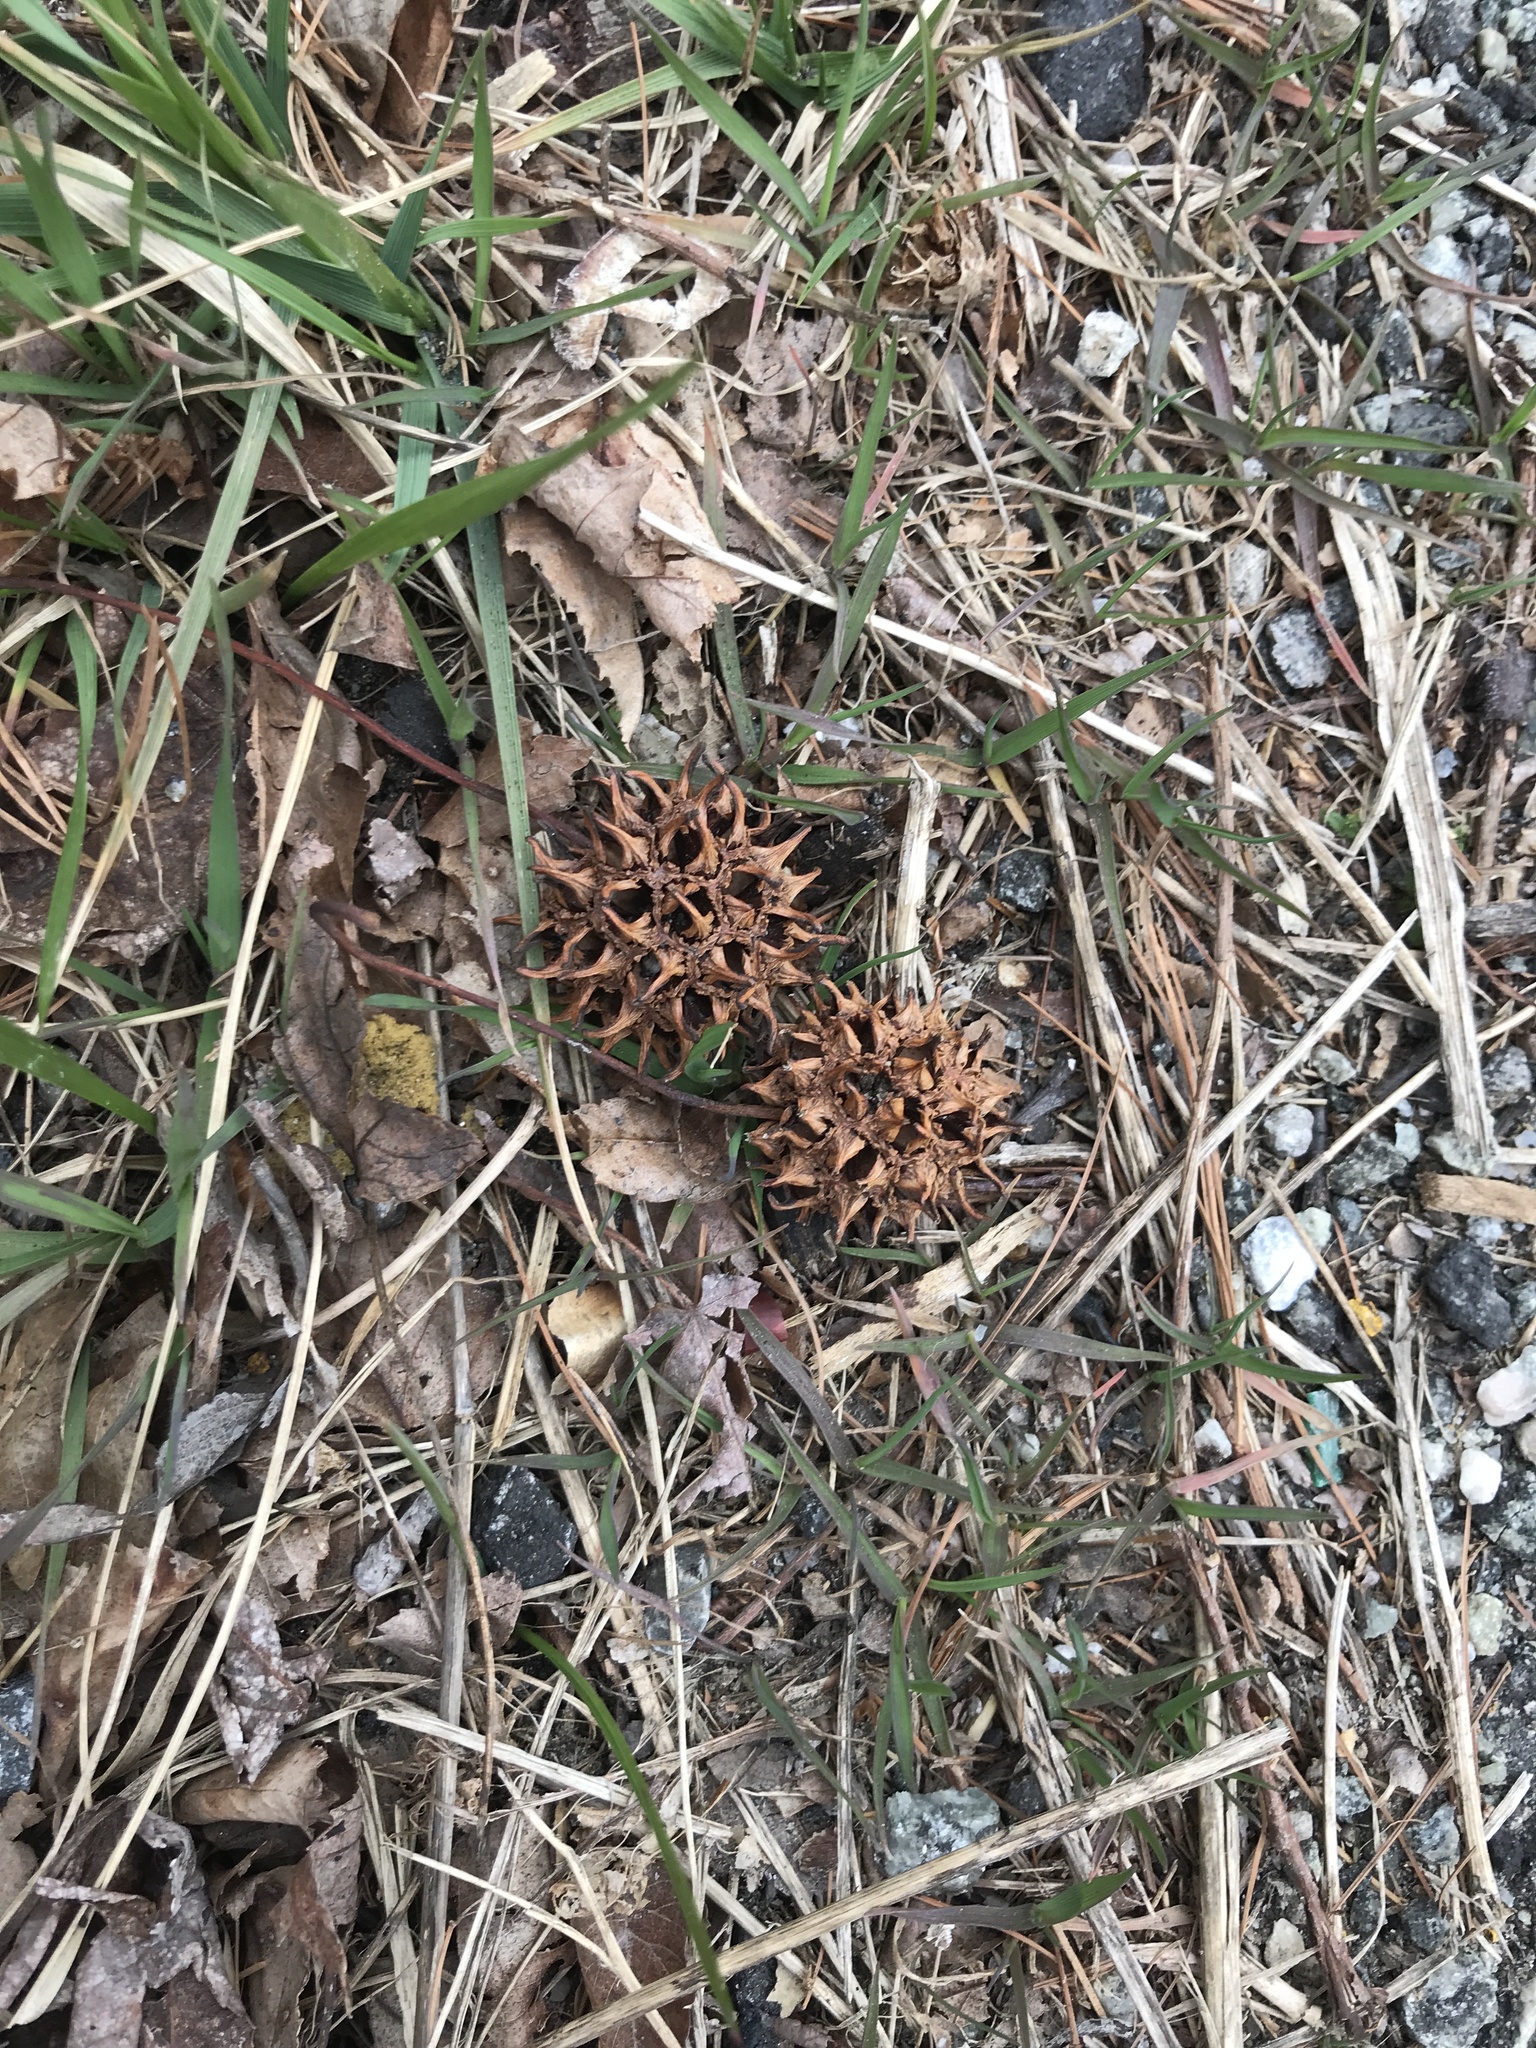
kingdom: Plantae
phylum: Tracheophyta
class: Magnoliopsida
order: Saxifragales
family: Altingiaceae
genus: Liquidambar
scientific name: Liquidambar styraciflua
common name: Sweet gum
